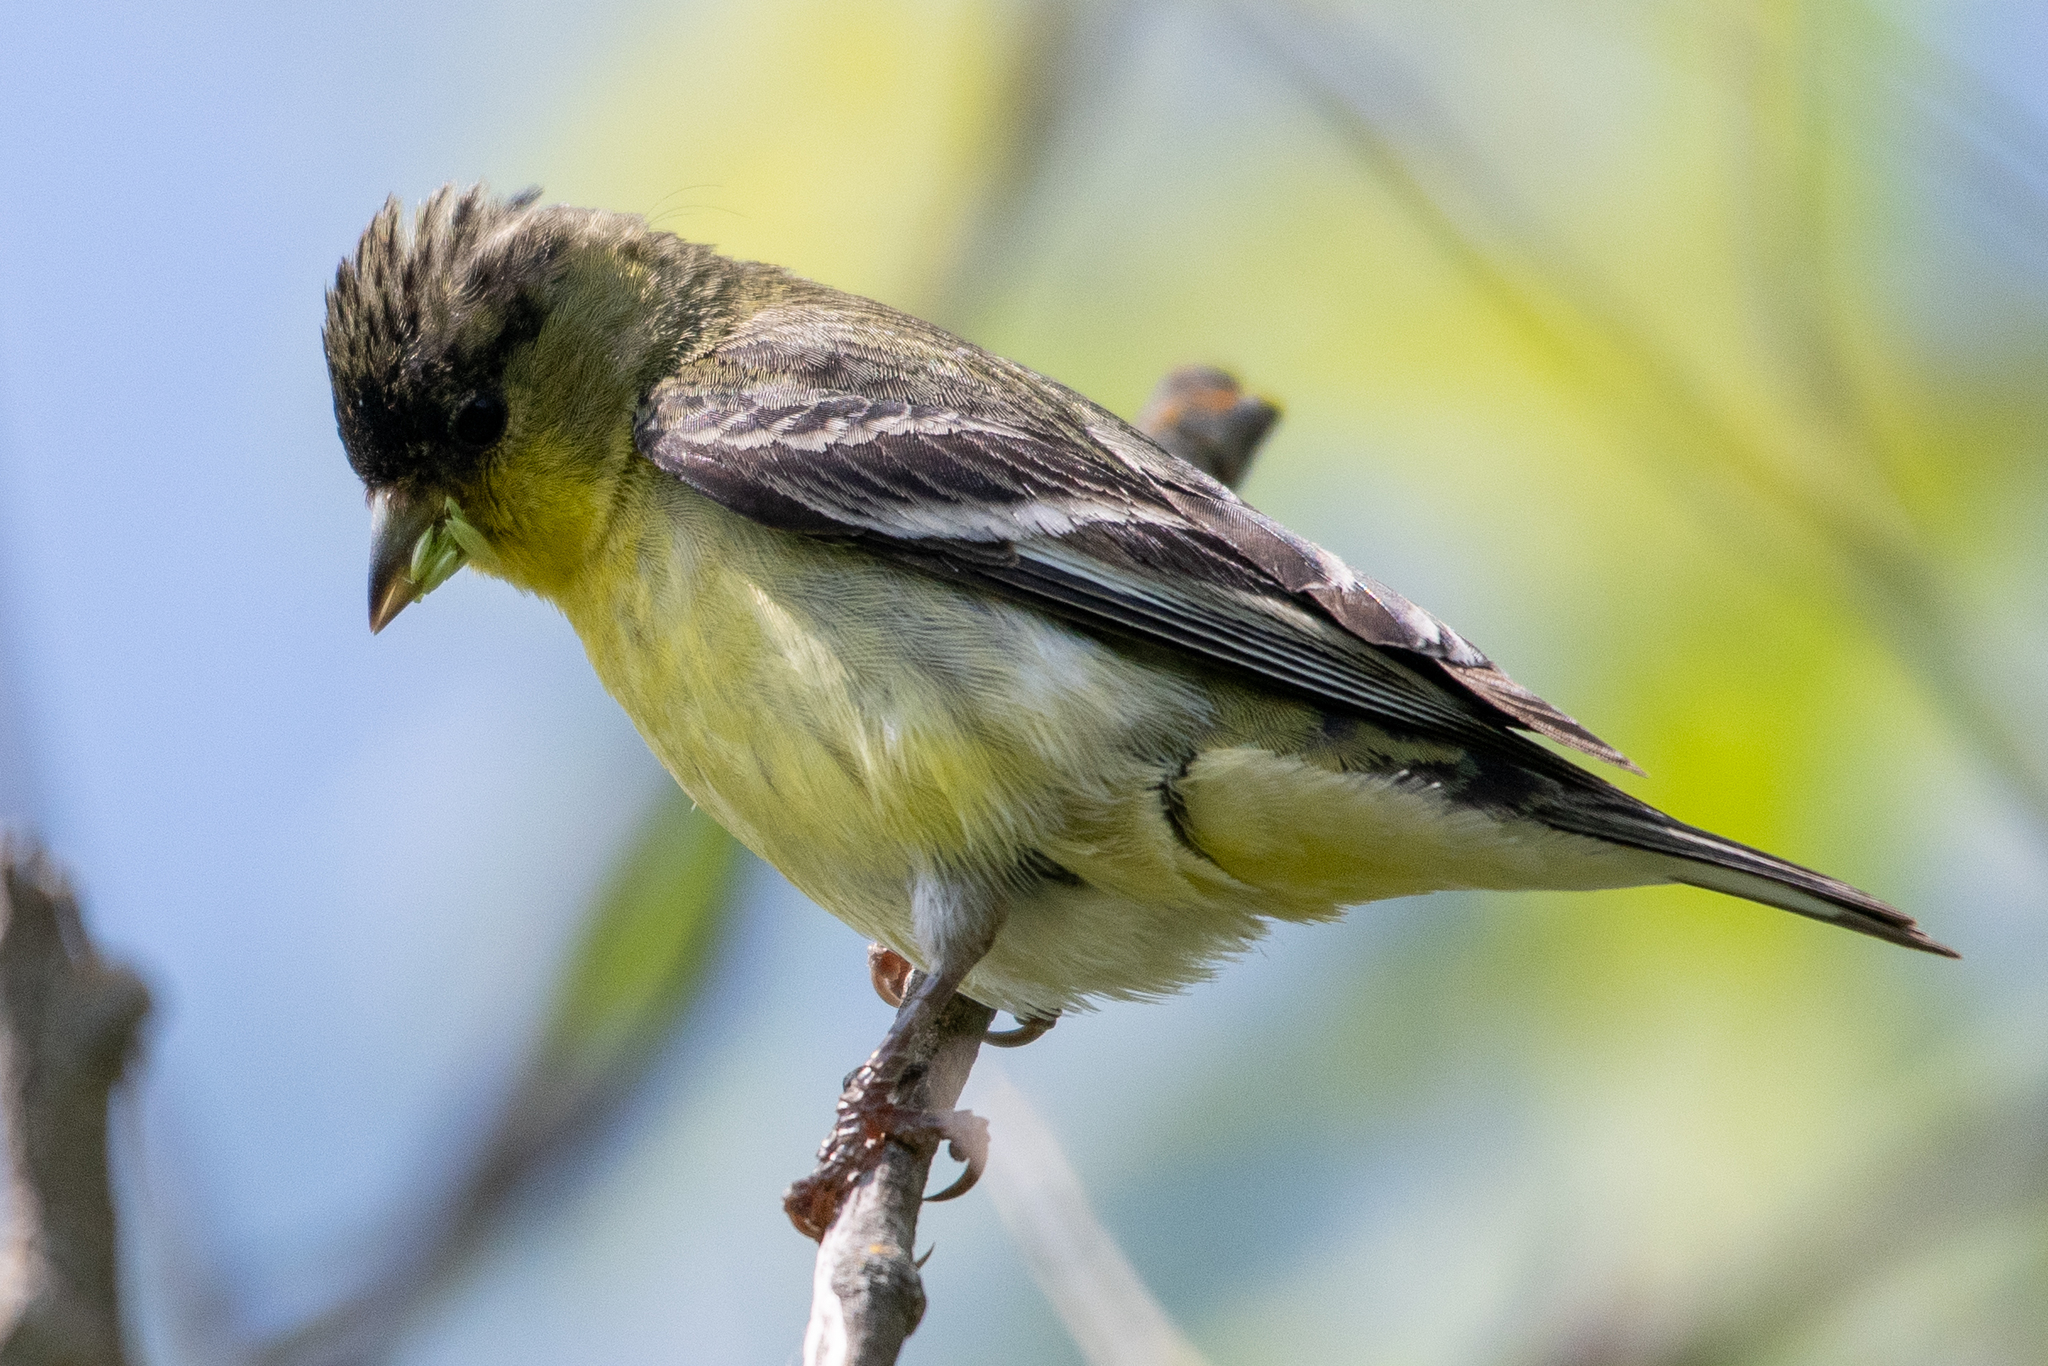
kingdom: Animalia
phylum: Chordata
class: Aves
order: Passeriformes
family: Fringillidae
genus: Spinus
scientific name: Spinus psaltria
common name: Lesser goldfinch
